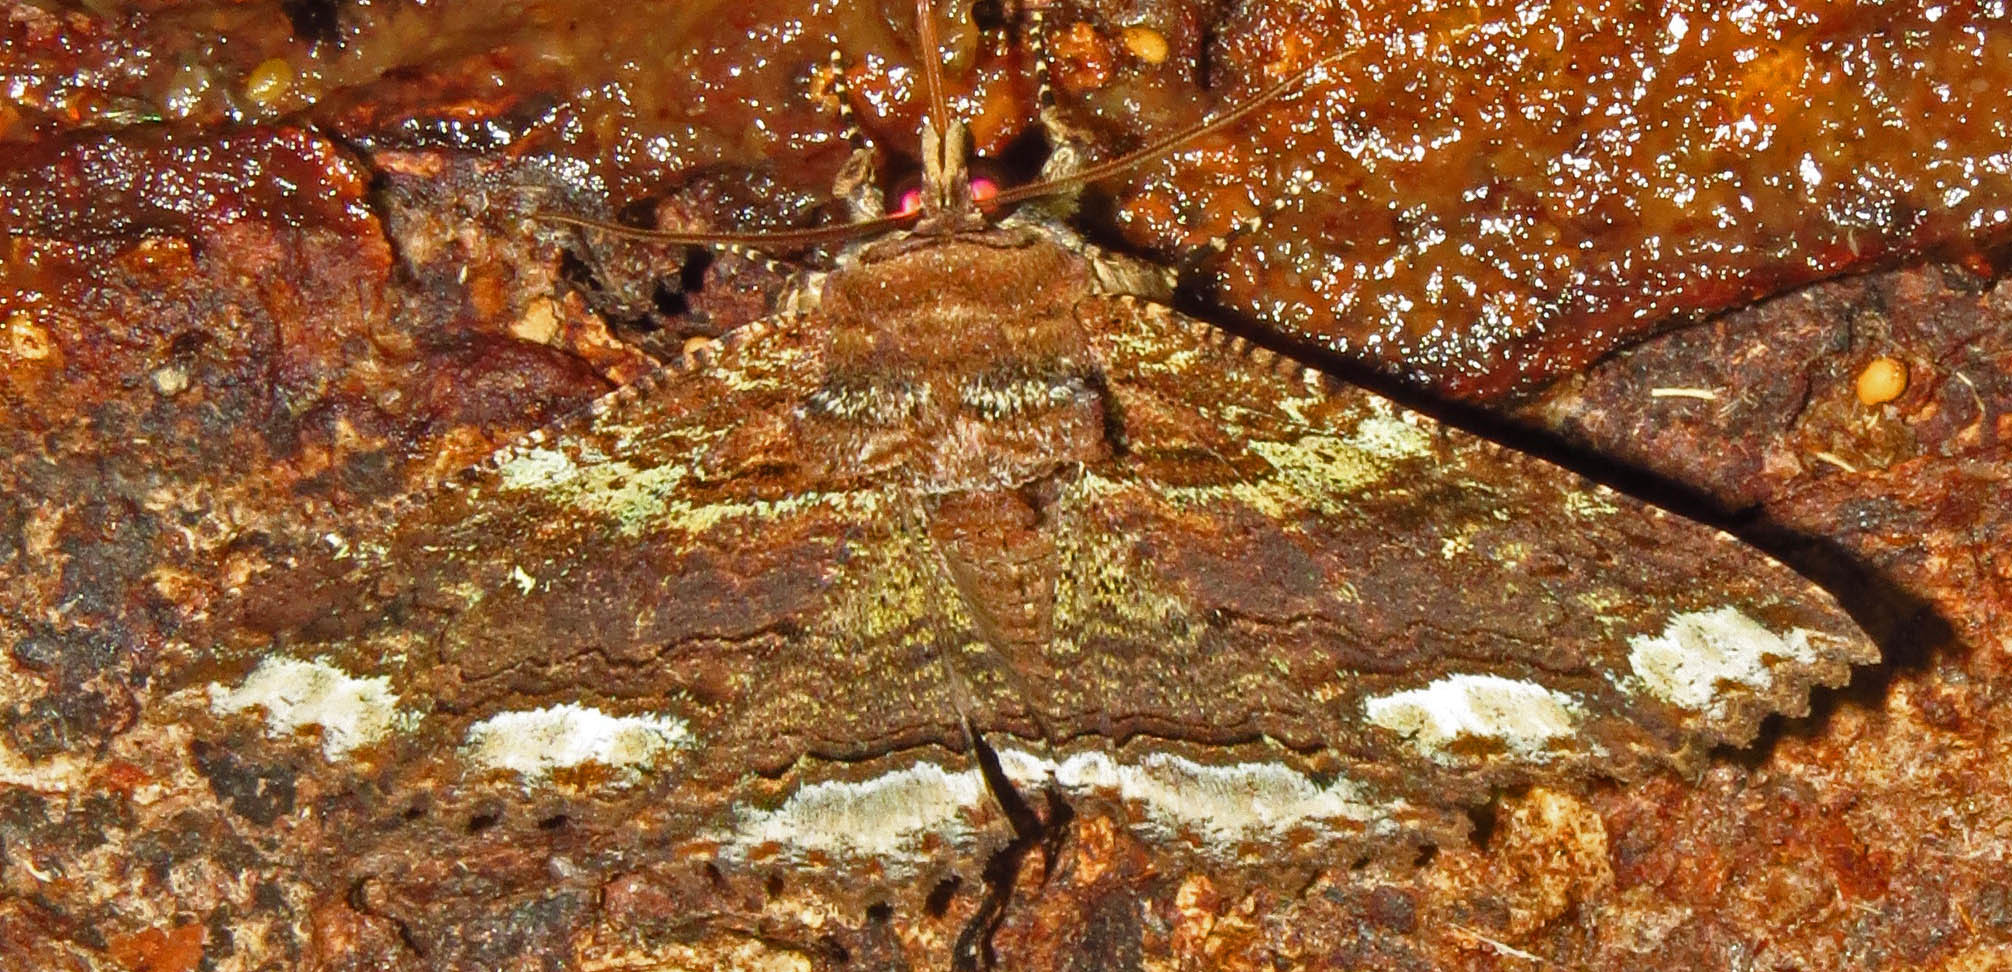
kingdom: Animalia
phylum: Arthropoda
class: Insecta
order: Lepidoptera
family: Erebidae
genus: Zale
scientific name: Zale lunata
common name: Lunate zale moth
